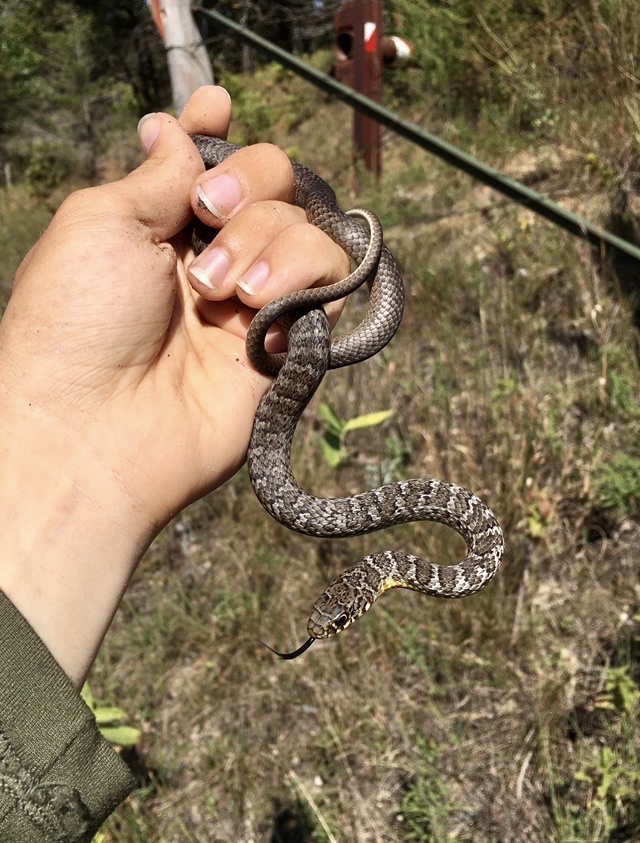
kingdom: Animalia
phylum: Chordata
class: Squamata
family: Colubridae
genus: Coluber
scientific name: Coluber constrictor
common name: Eastern racer
